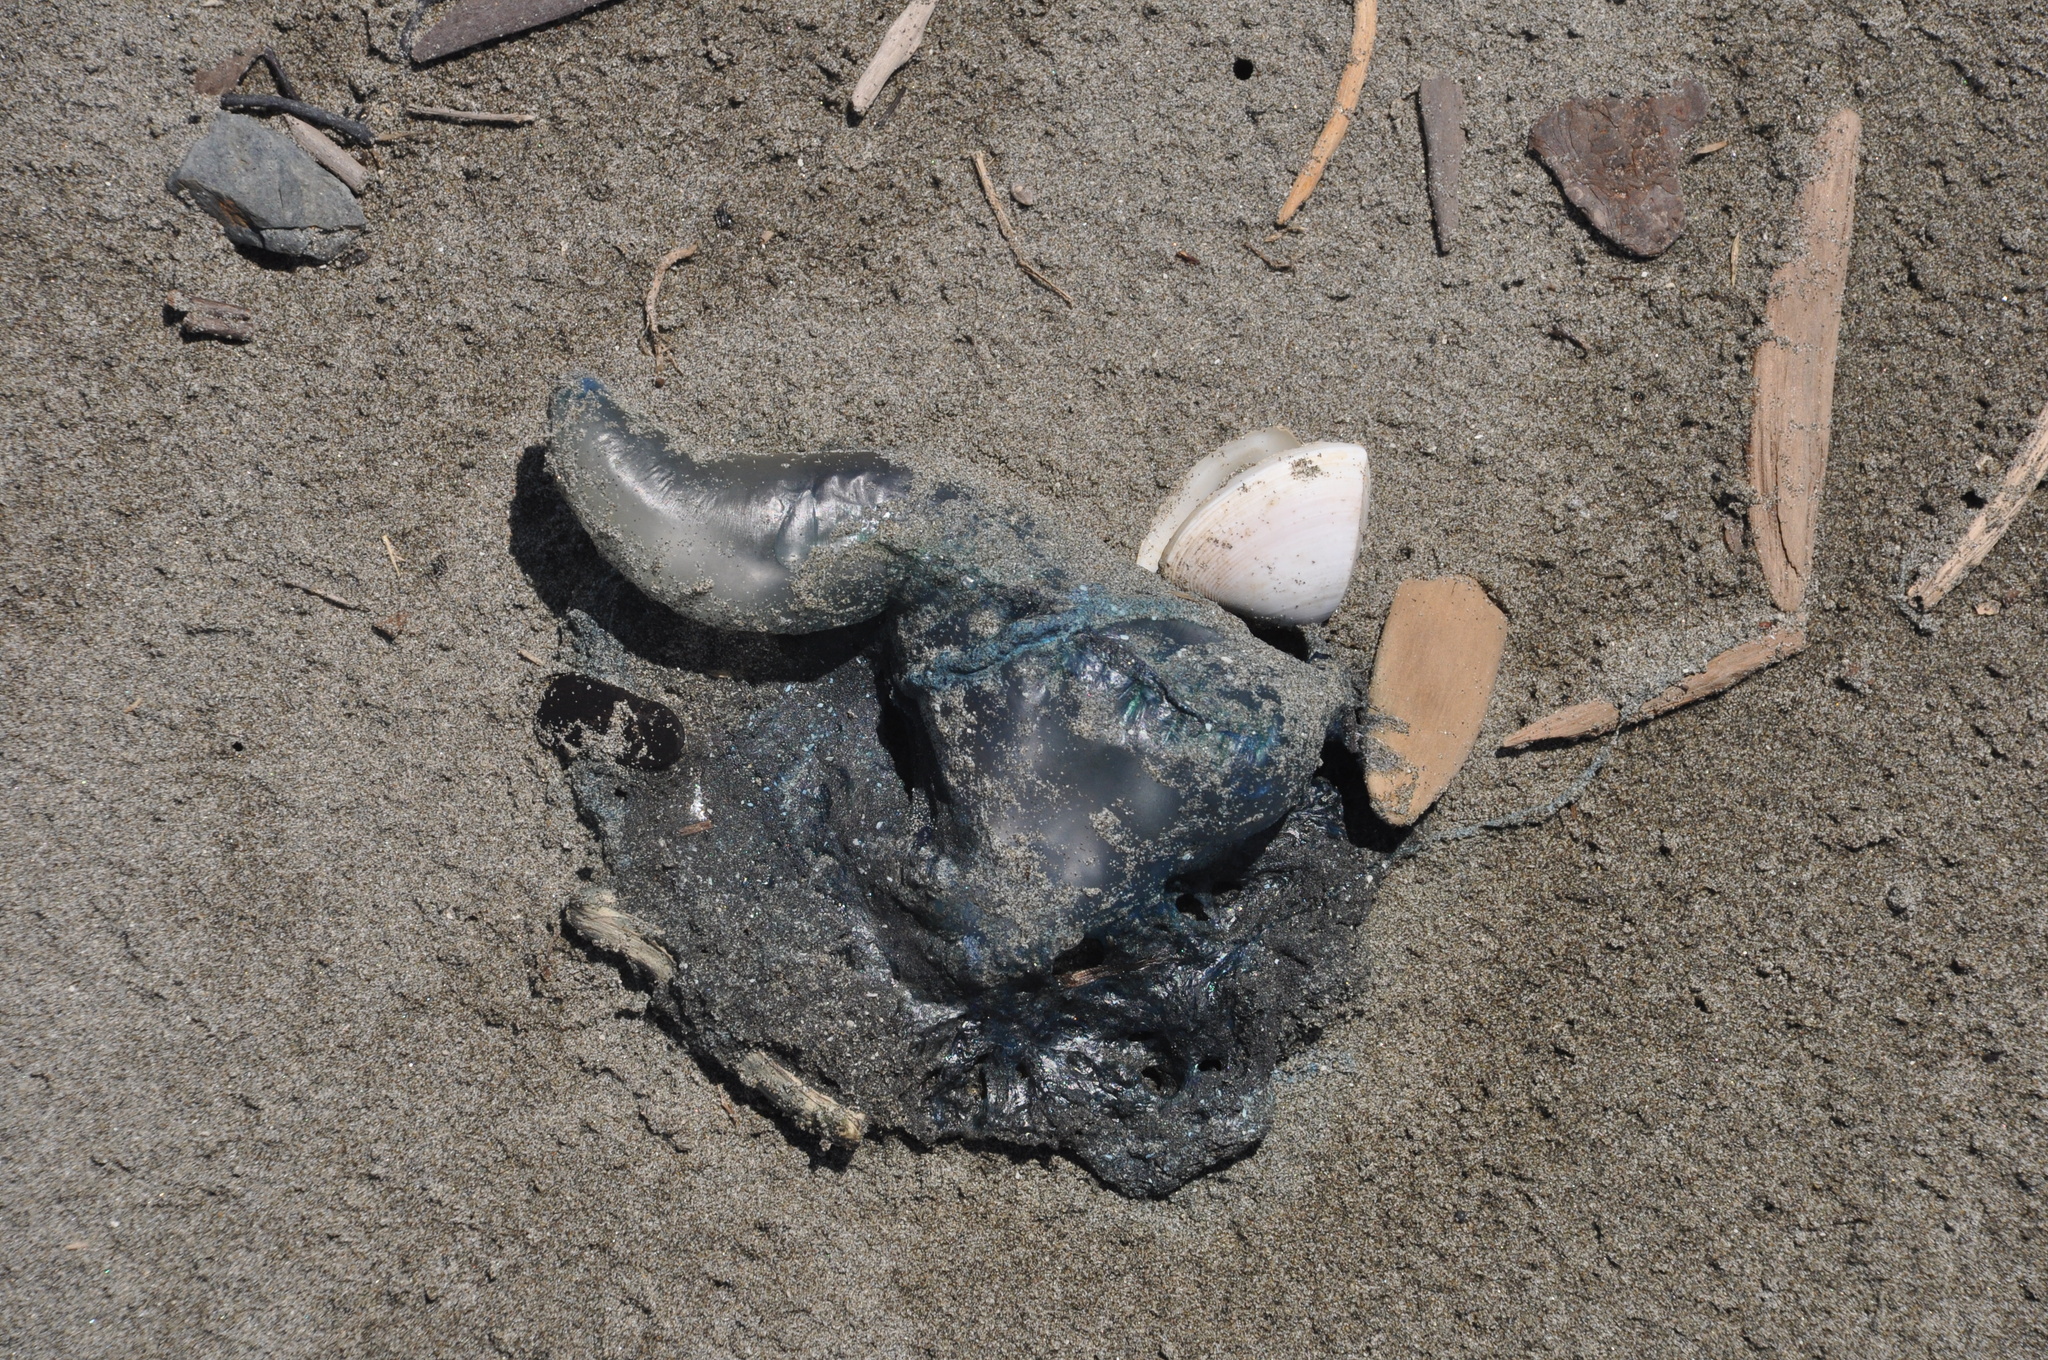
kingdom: Animalia
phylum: Cnidaria
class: Hydrozoa
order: Siphonophorae
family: Physaliidae
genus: Physalia
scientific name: Physalia physalis
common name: Portuguese man-of-war
